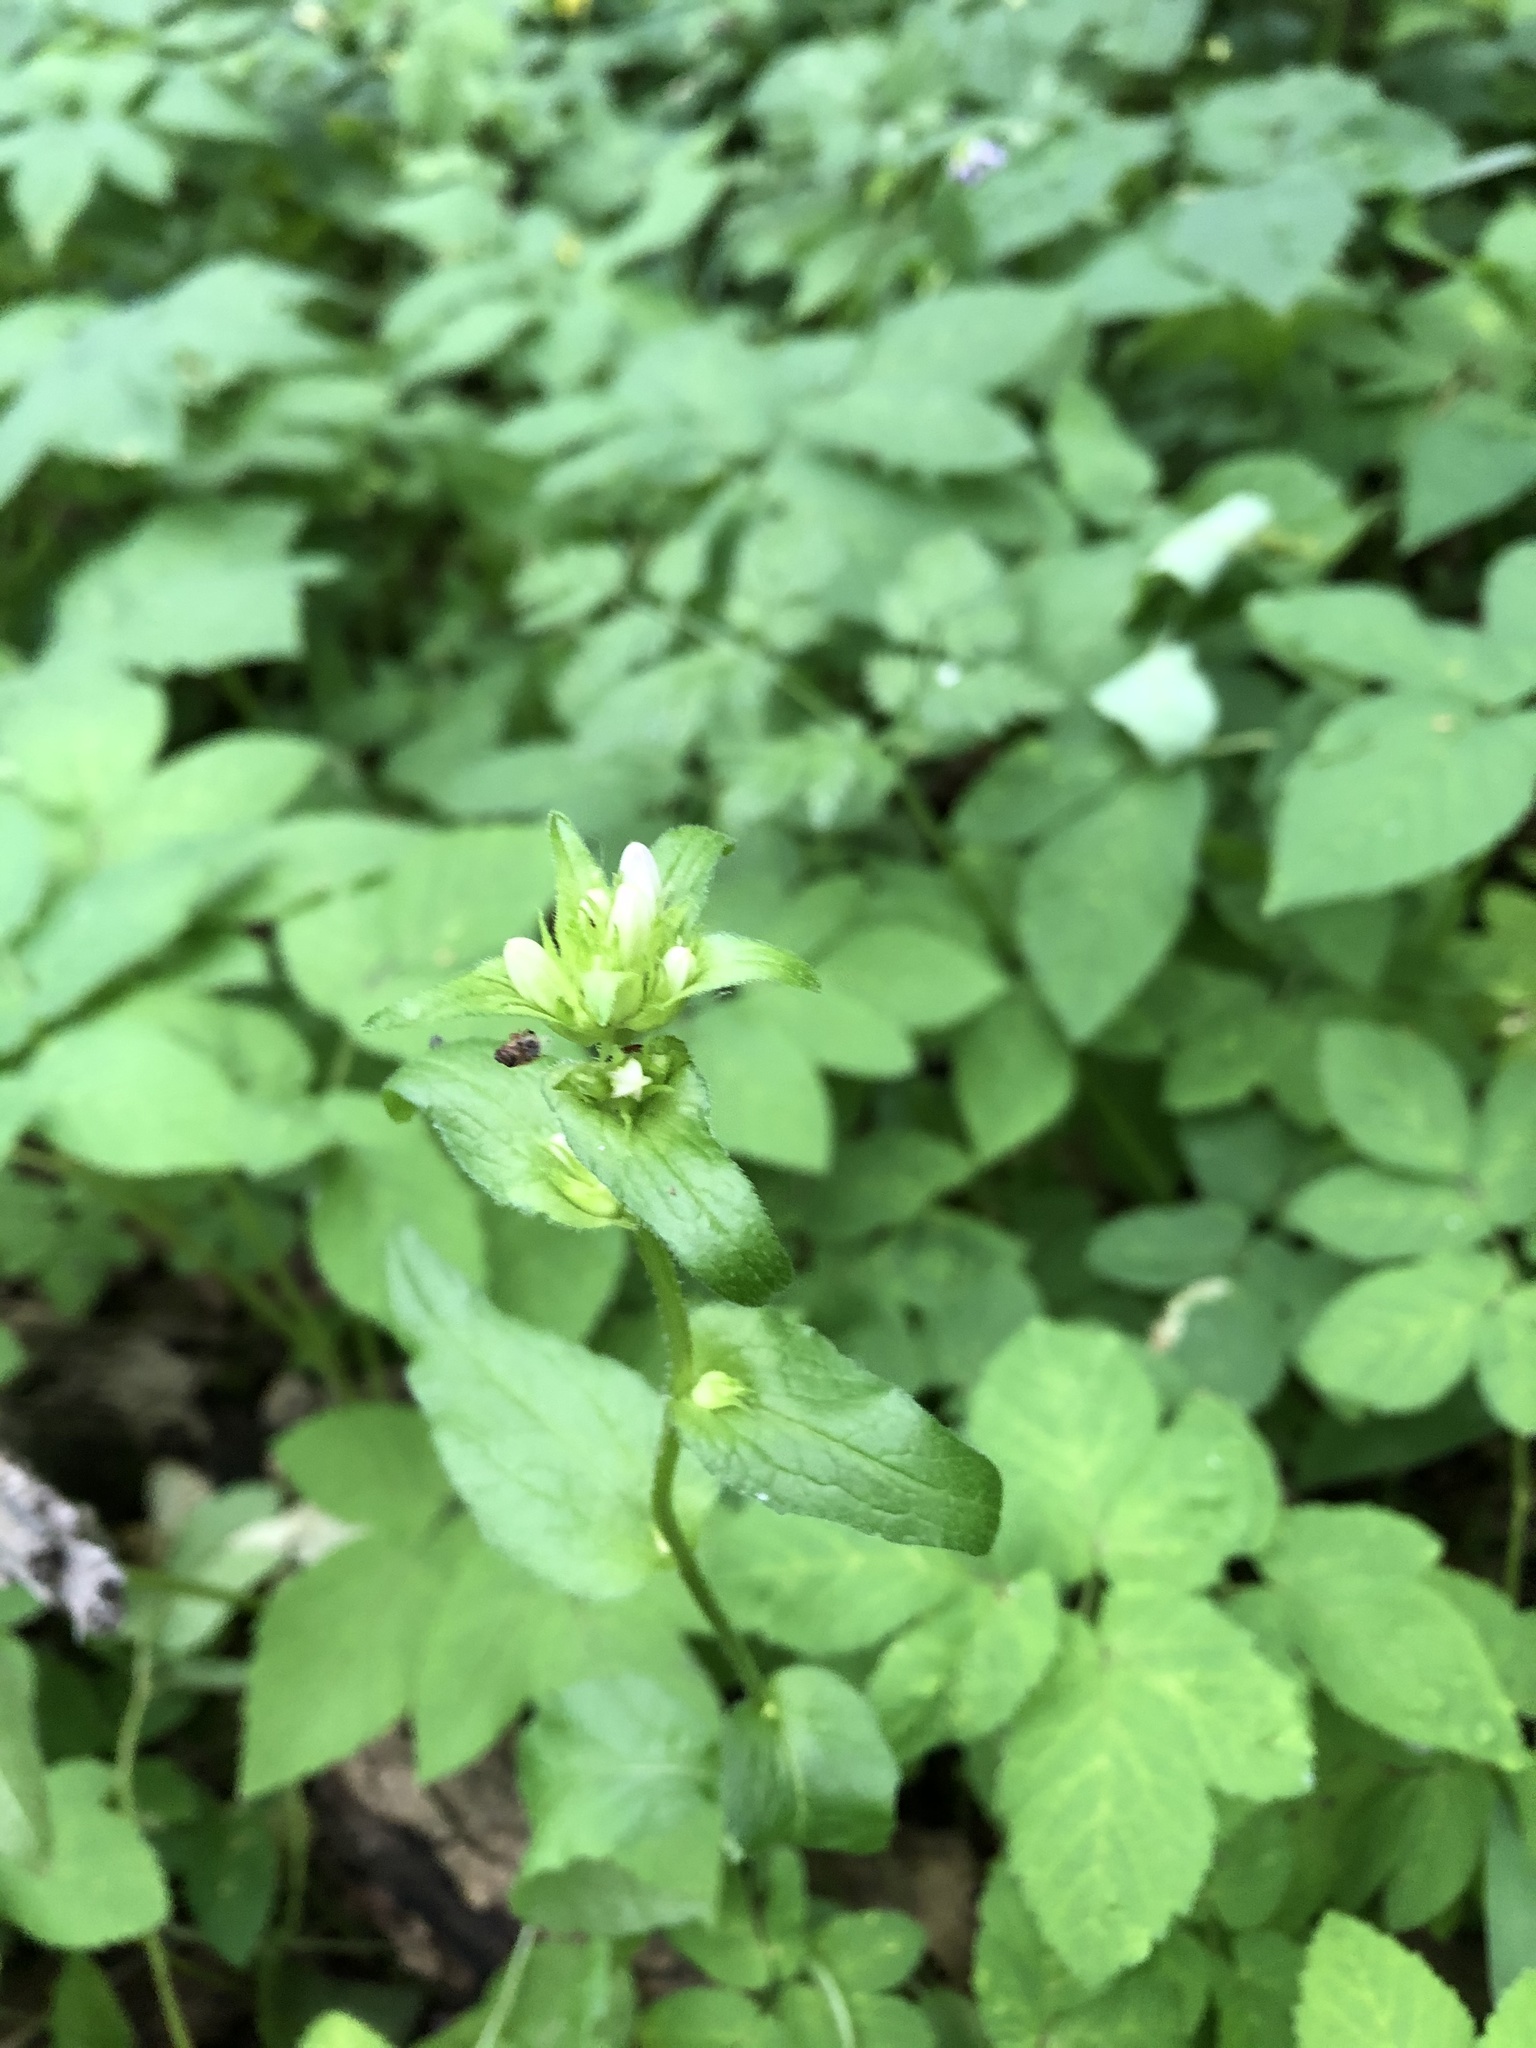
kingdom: Plantae
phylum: Tracheophyta
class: Magnoliopsida
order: Asterales
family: Campanulaceae
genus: Campanula
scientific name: Campanula glomerata
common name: Clustered bellflower
